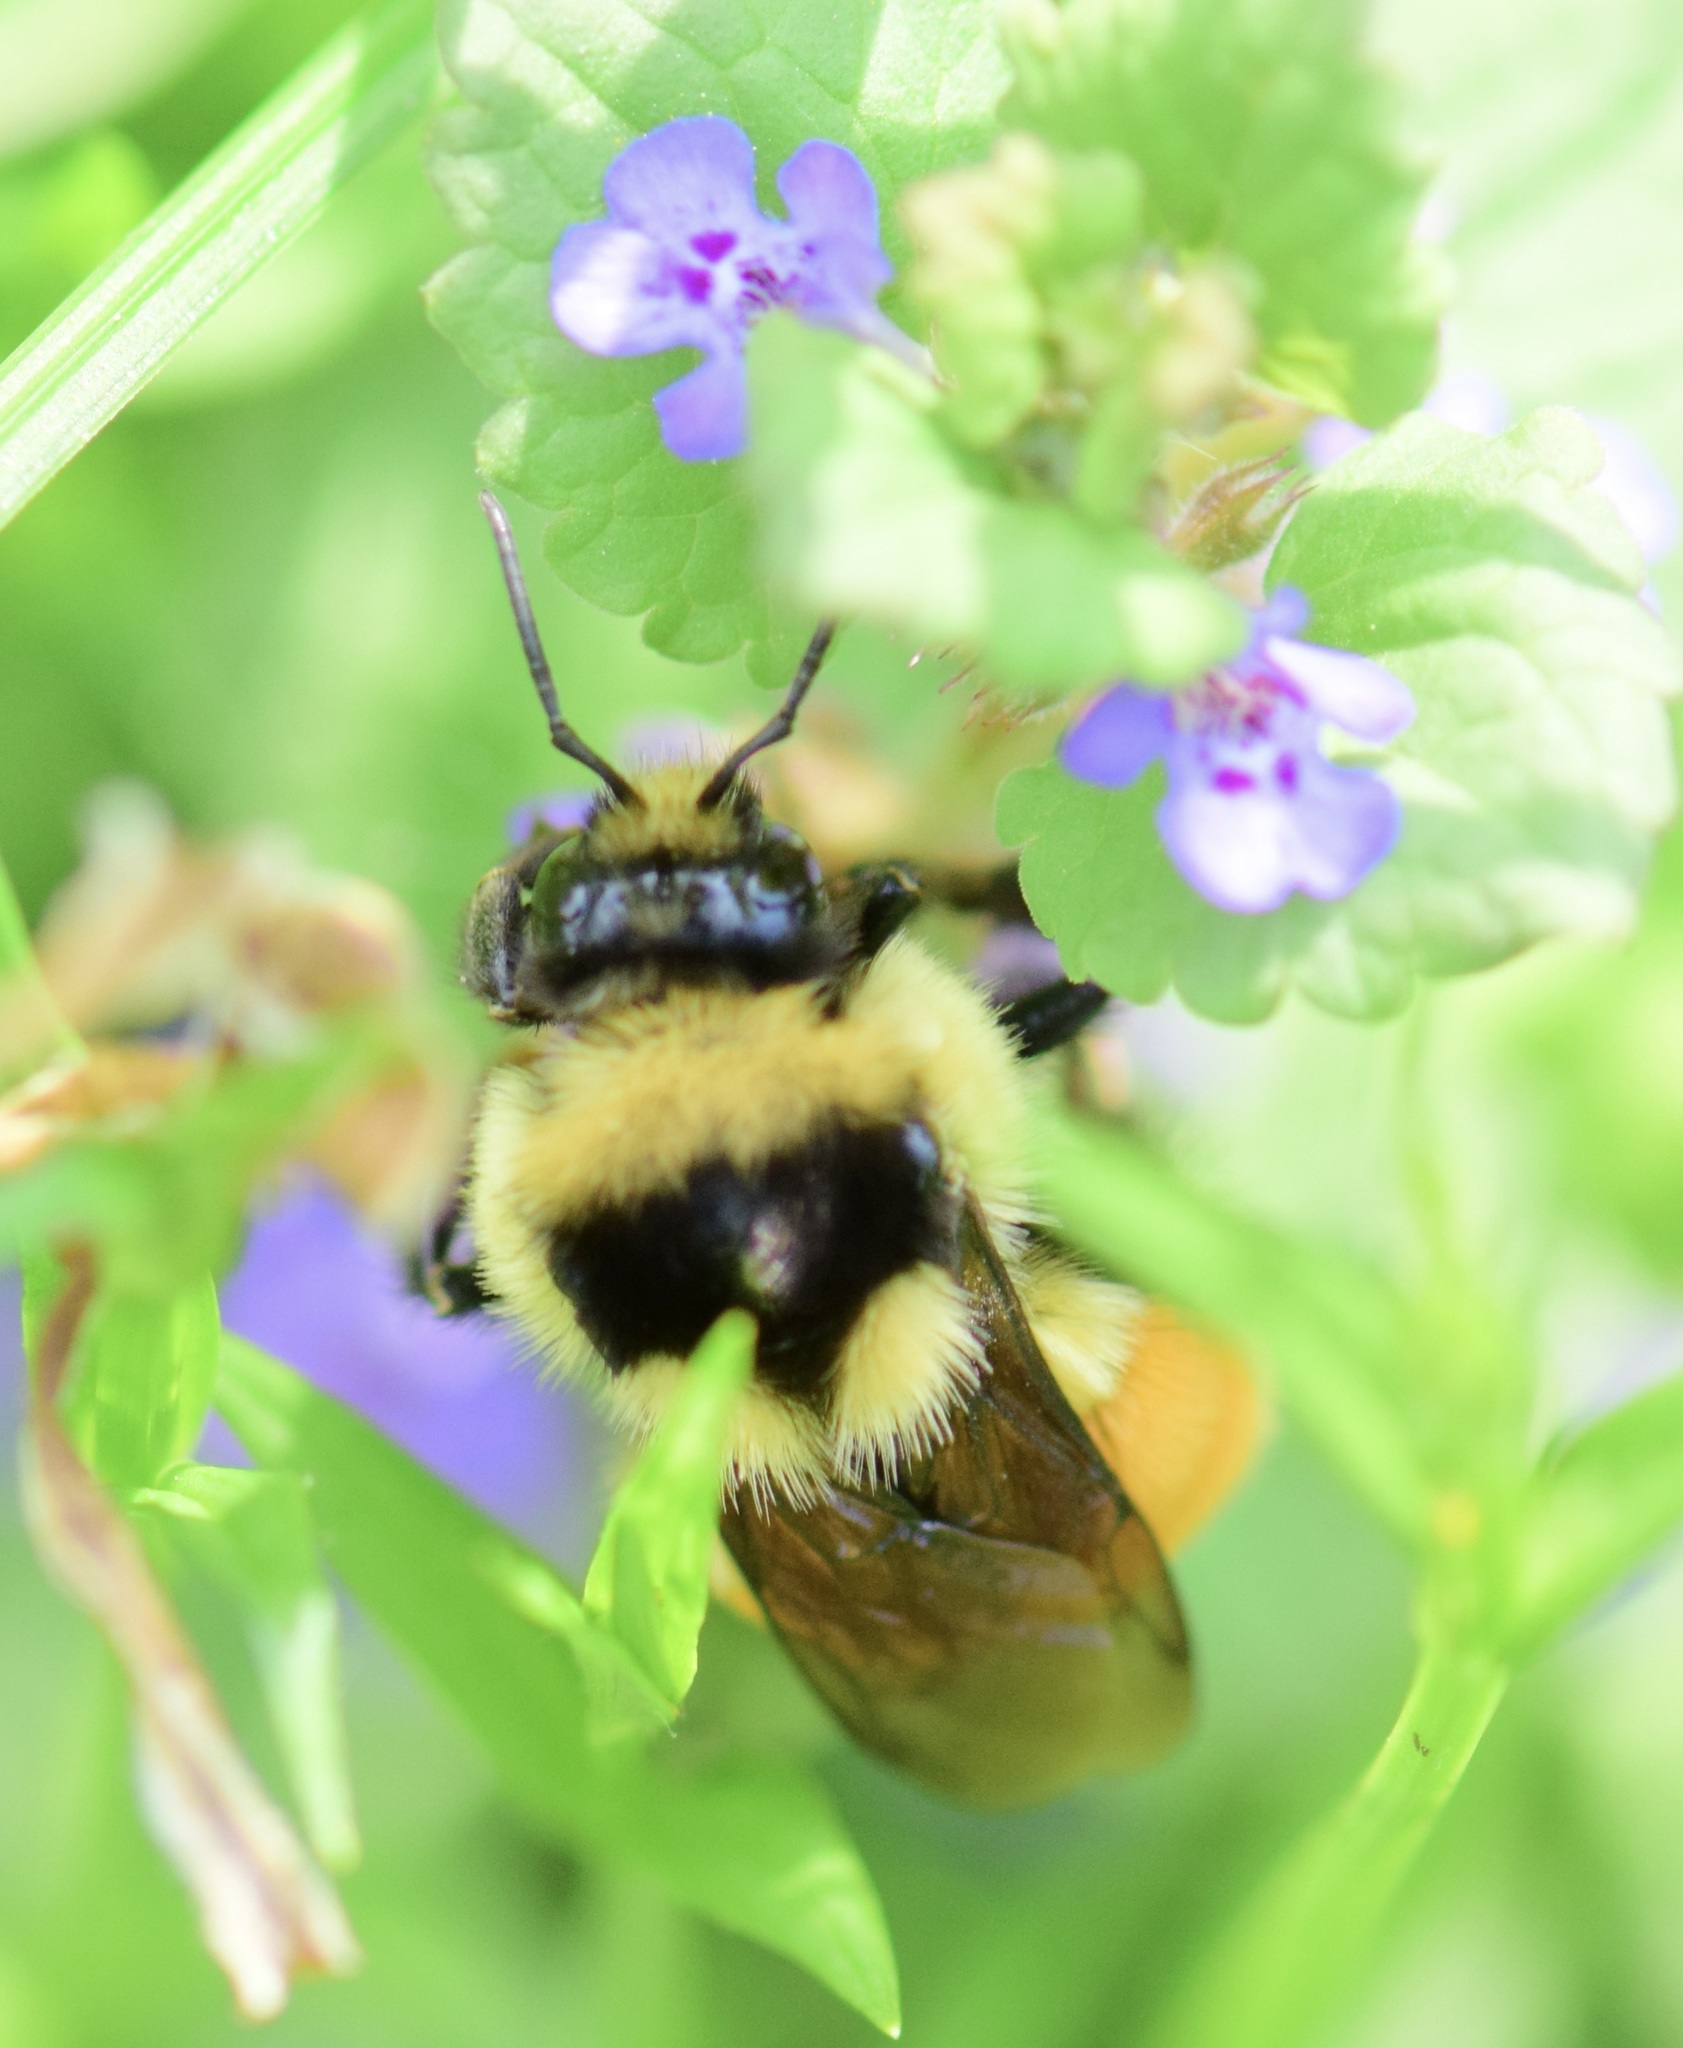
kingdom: Animalia
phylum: Arthropoda
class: Insecta
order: Hymenoptera
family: Apidae
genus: Bombus
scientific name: Bombus ternarius
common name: Tri-colored bumble bee
